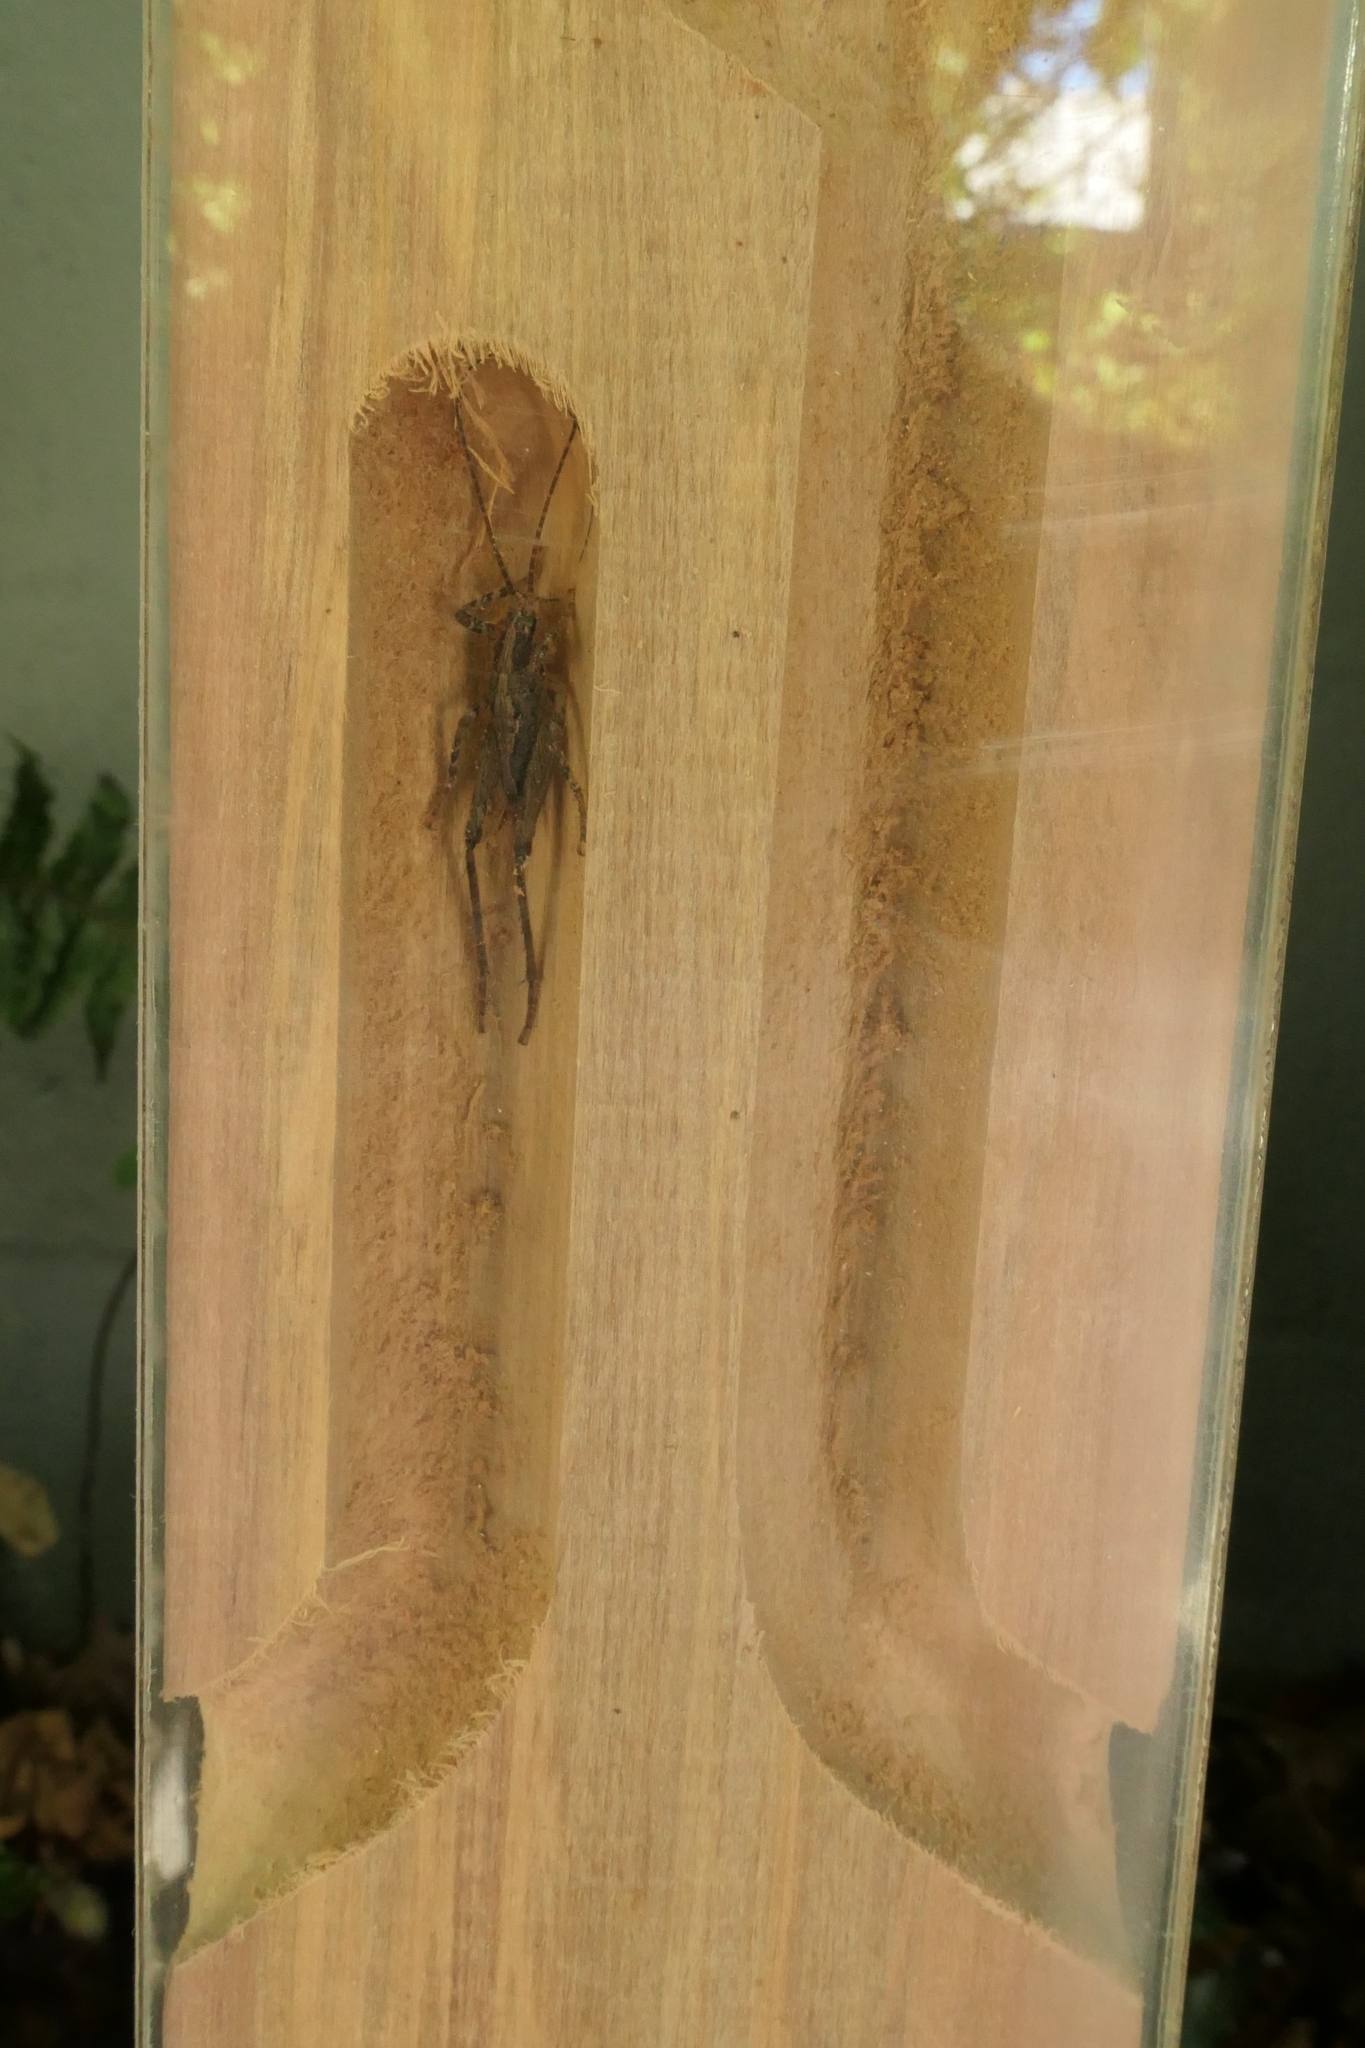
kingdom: Animalia
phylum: Arthropoda
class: Insecta
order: Orthoptera
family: Rhaphidophoridae
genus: Isoplectron
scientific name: Isoplectron armatum
